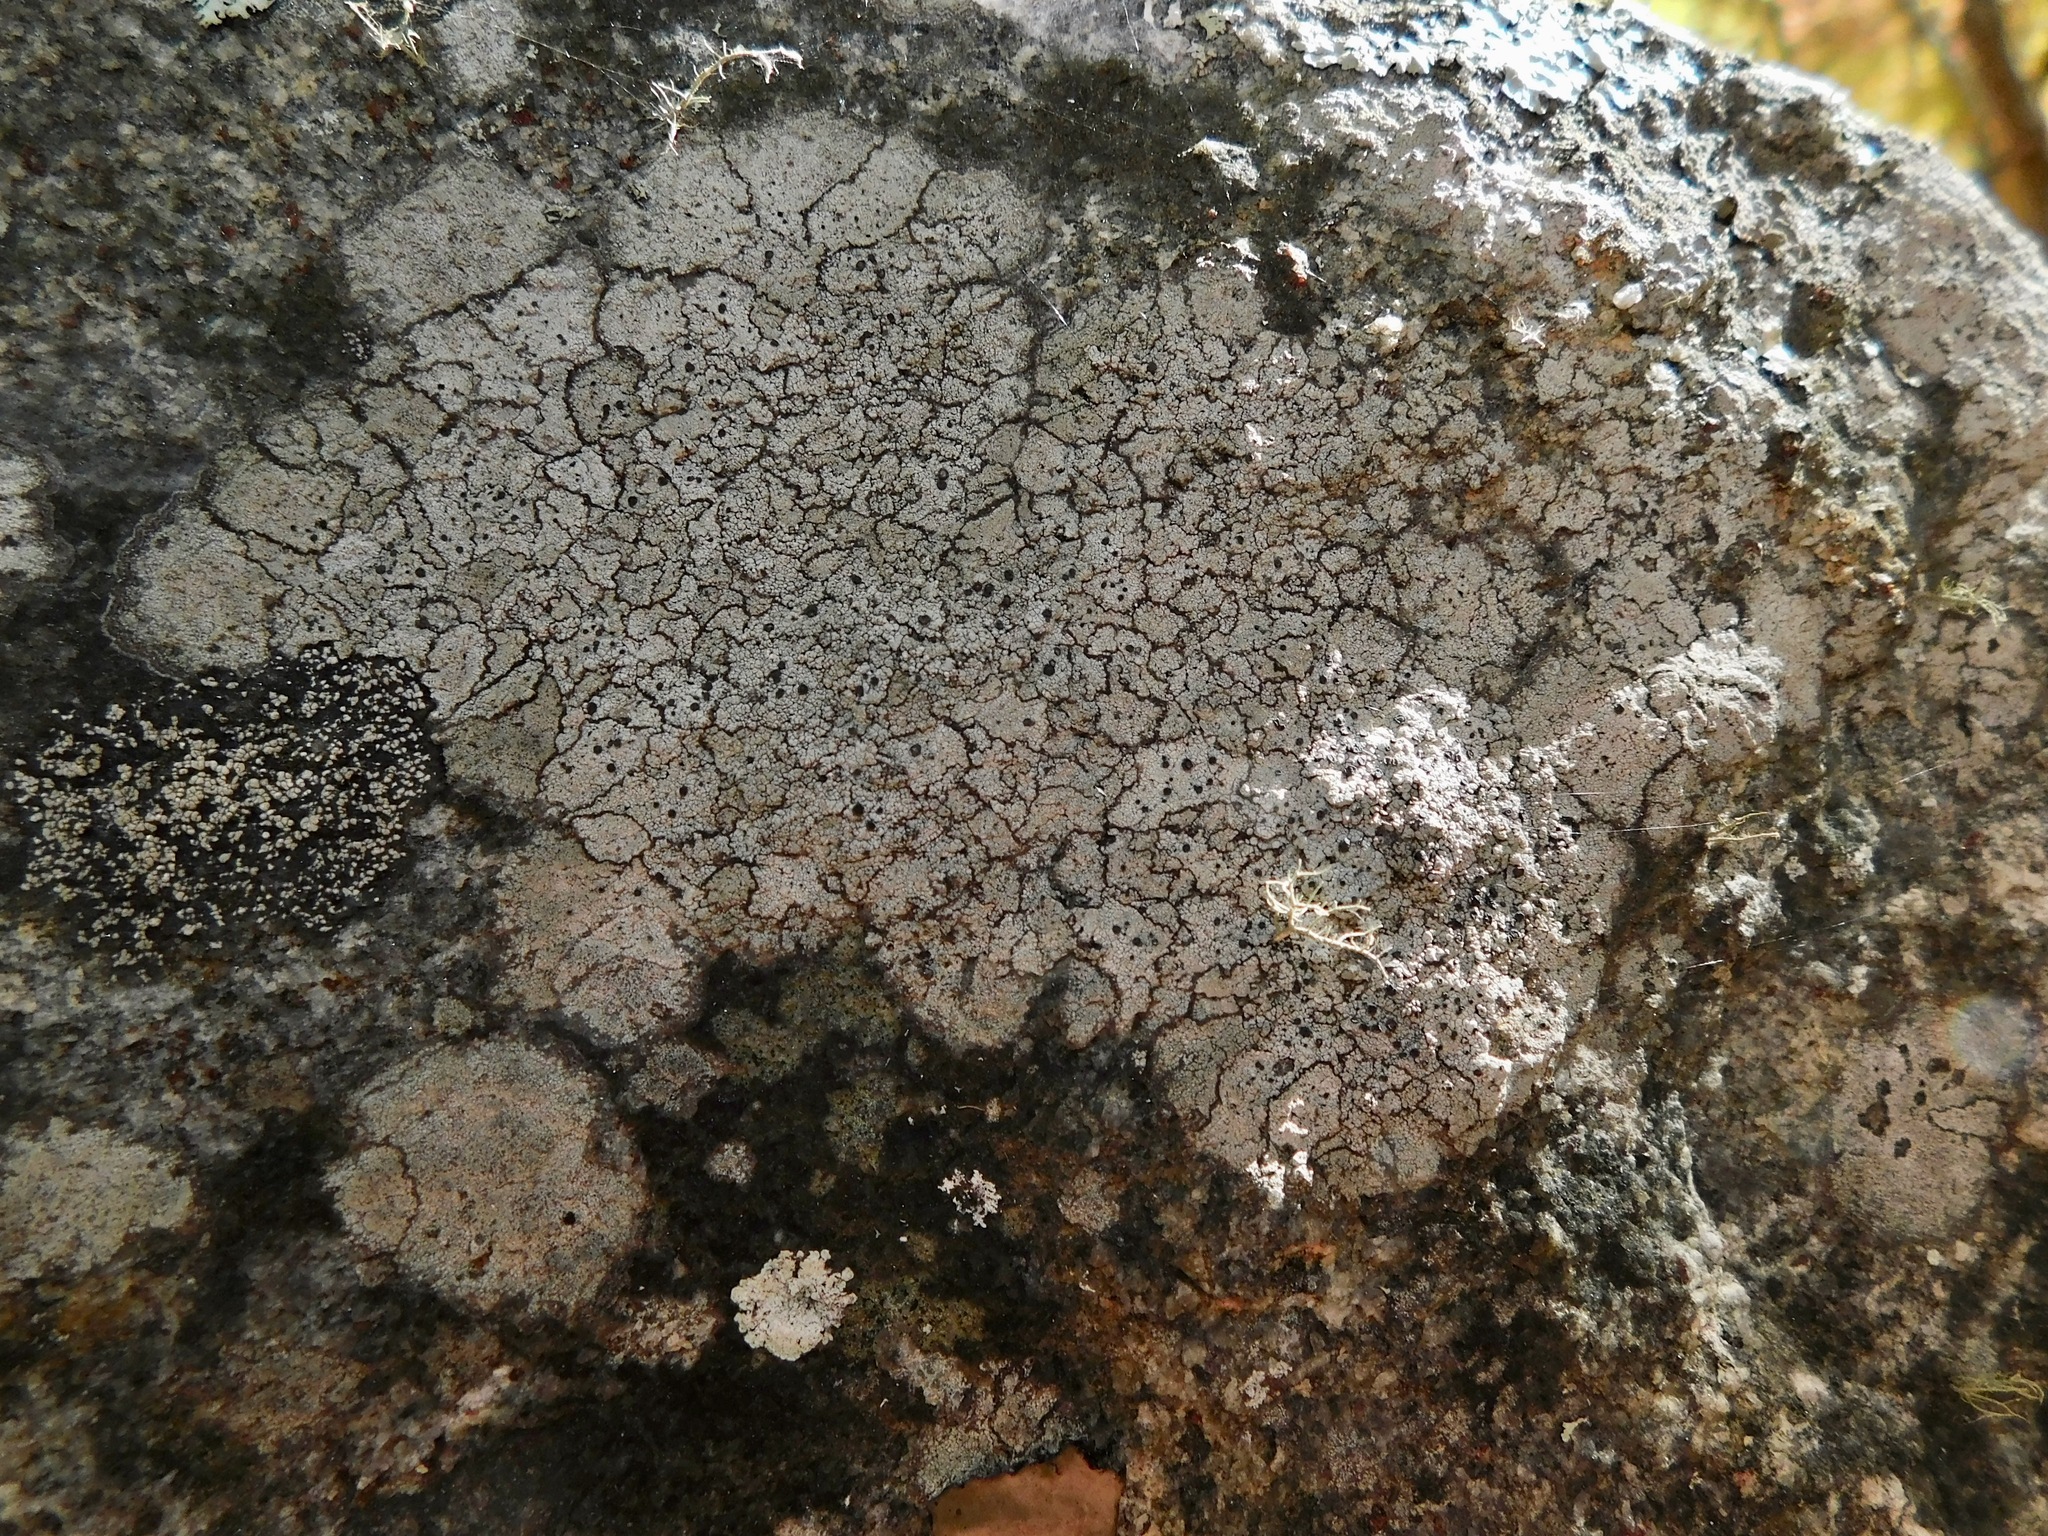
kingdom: Fungi
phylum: Ascomycota
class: Lecanoromycetes
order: Umbilicariales
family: Fuscideaceae
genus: Fuscidea
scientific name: Fuscidea recensa
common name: A quilt lichen
